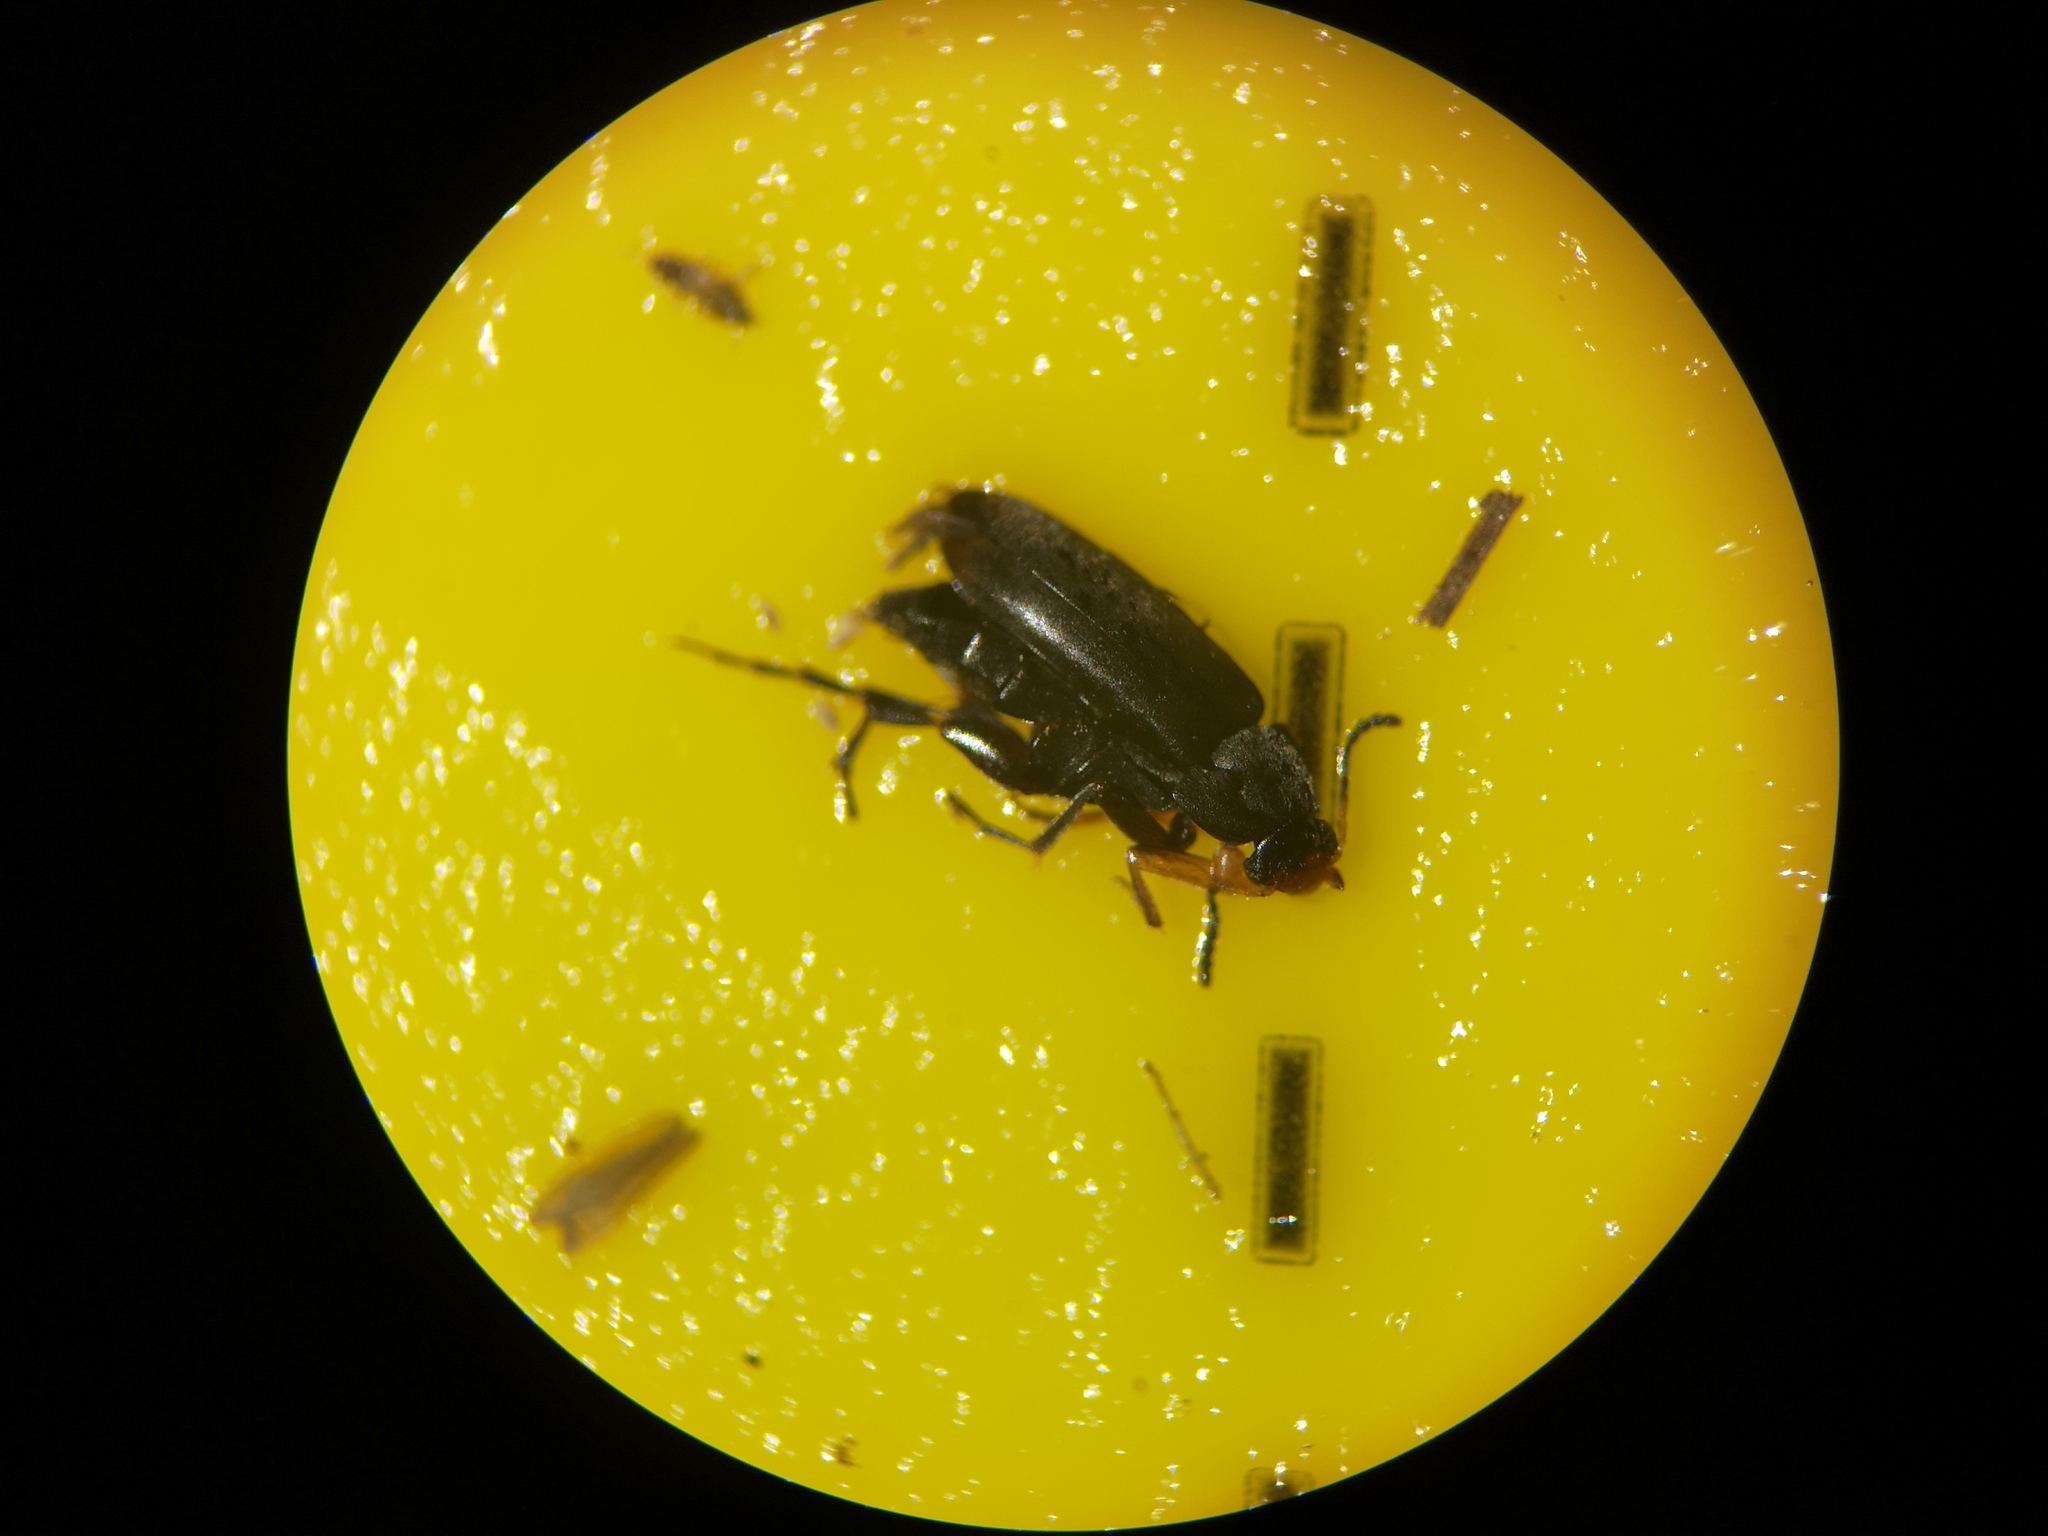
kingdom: Animalia
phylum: Arthropoda
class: Insecta
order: Coleoptera
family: Scraptiidae
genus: Anaspis
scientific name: Anaspis frontalis
